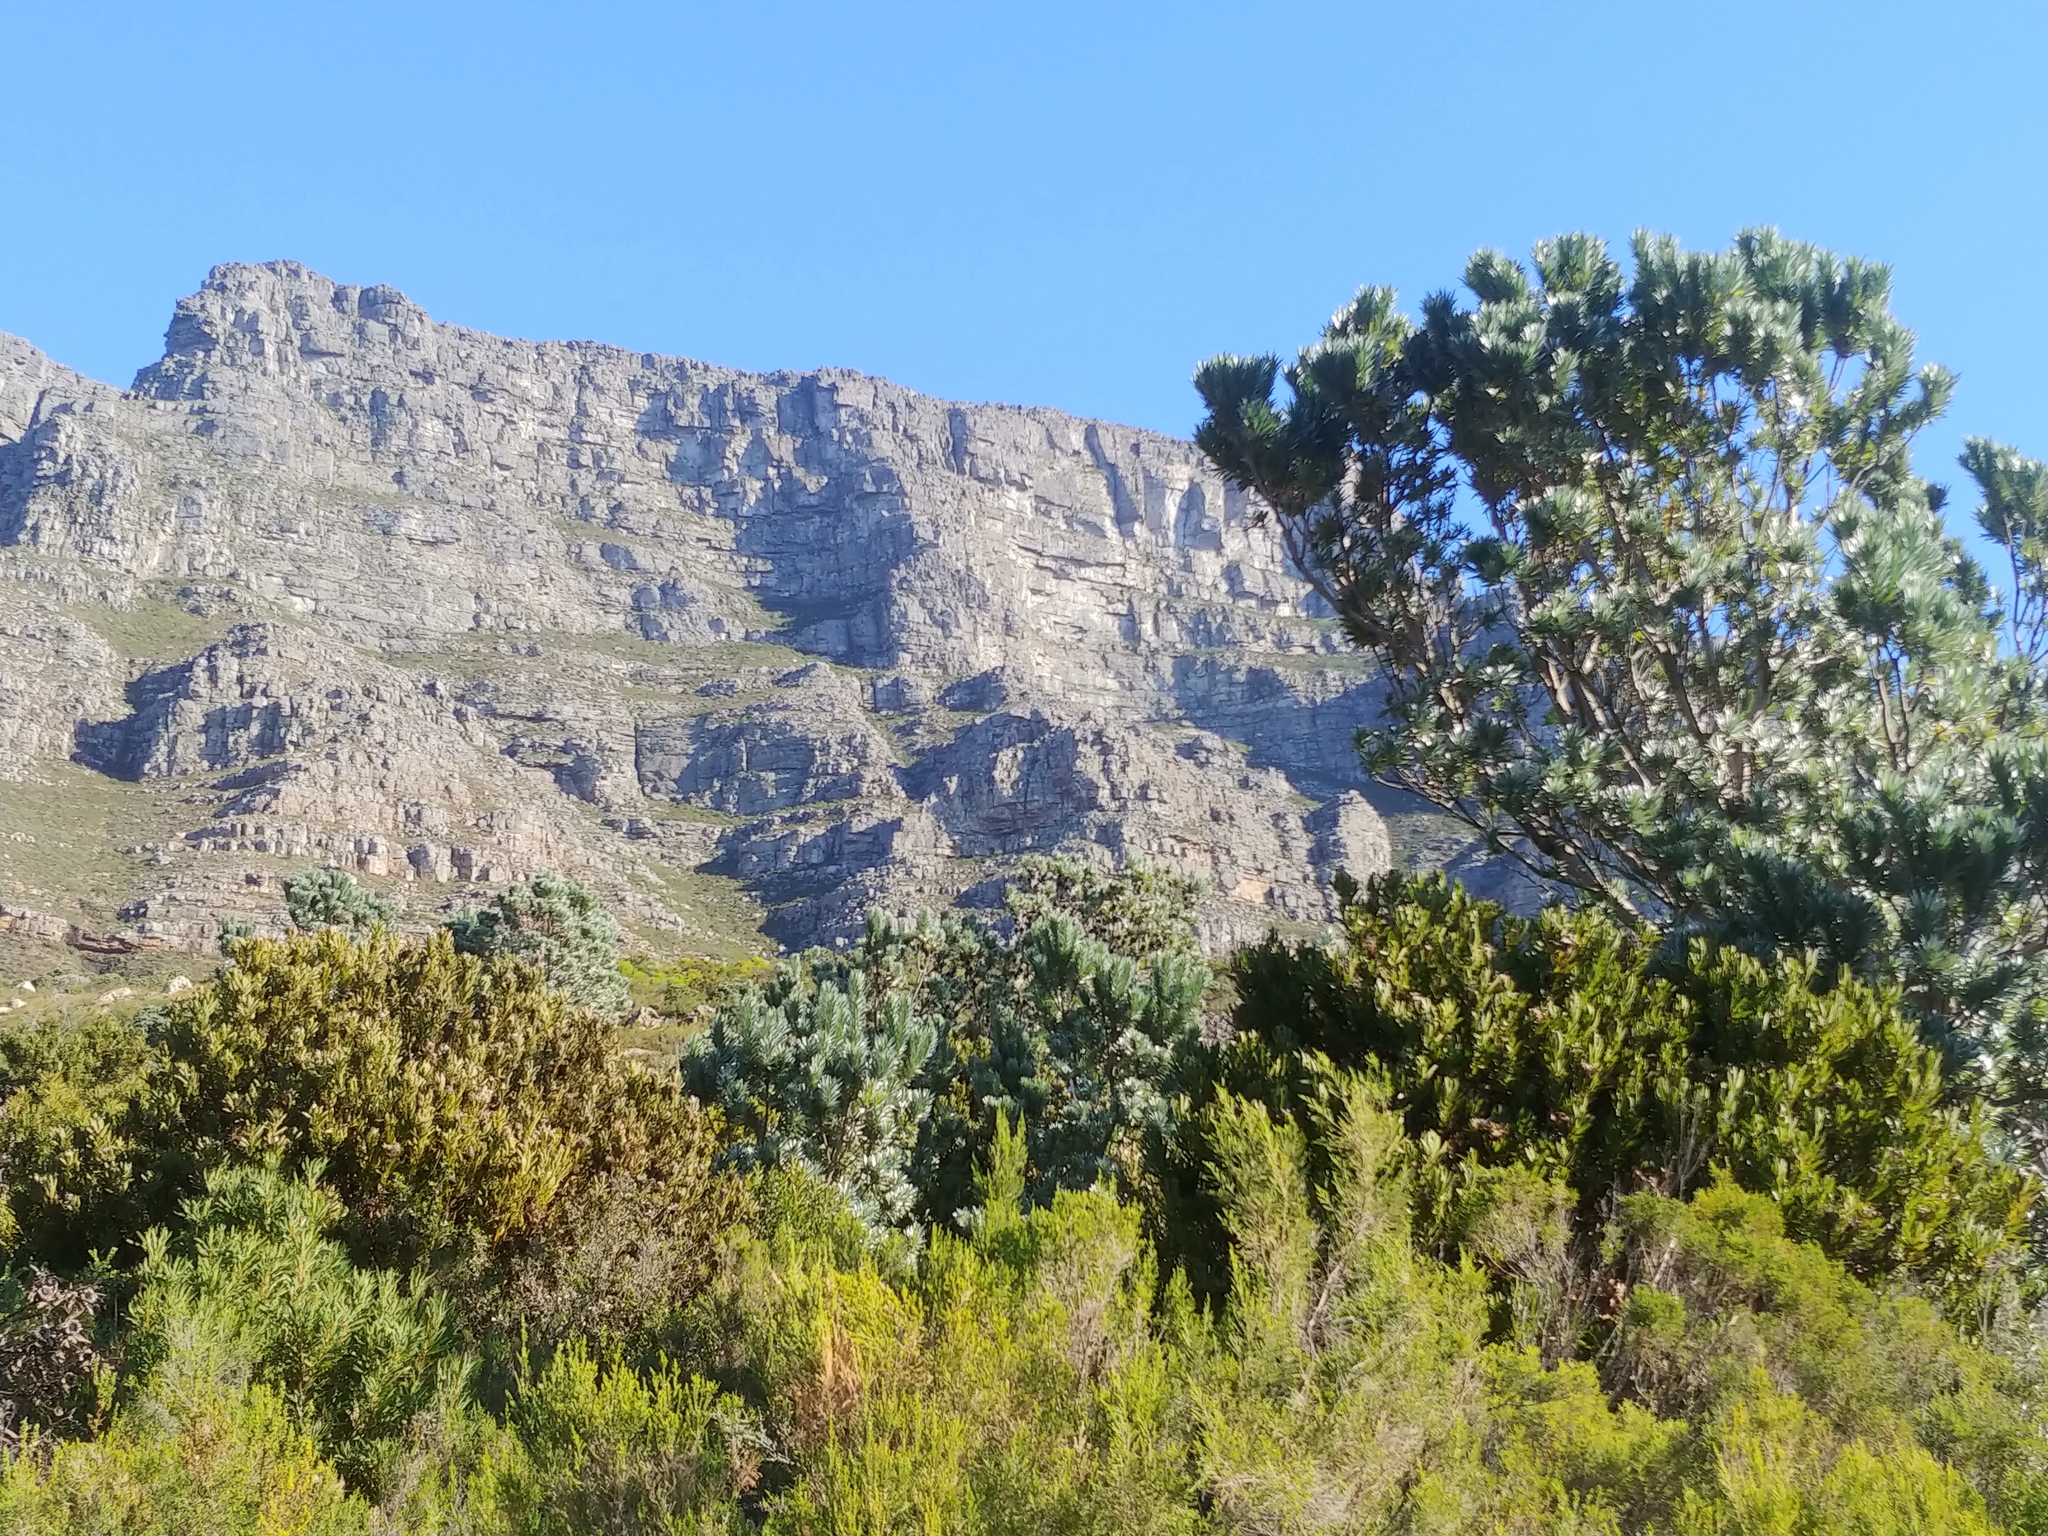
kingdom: Plantae
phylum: Tracheophyta
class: Magnoliopsida
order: Proteales
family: Proteaceae
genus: Leucadendron
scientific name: Leucadendron argenteum
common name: Cape silver tree
